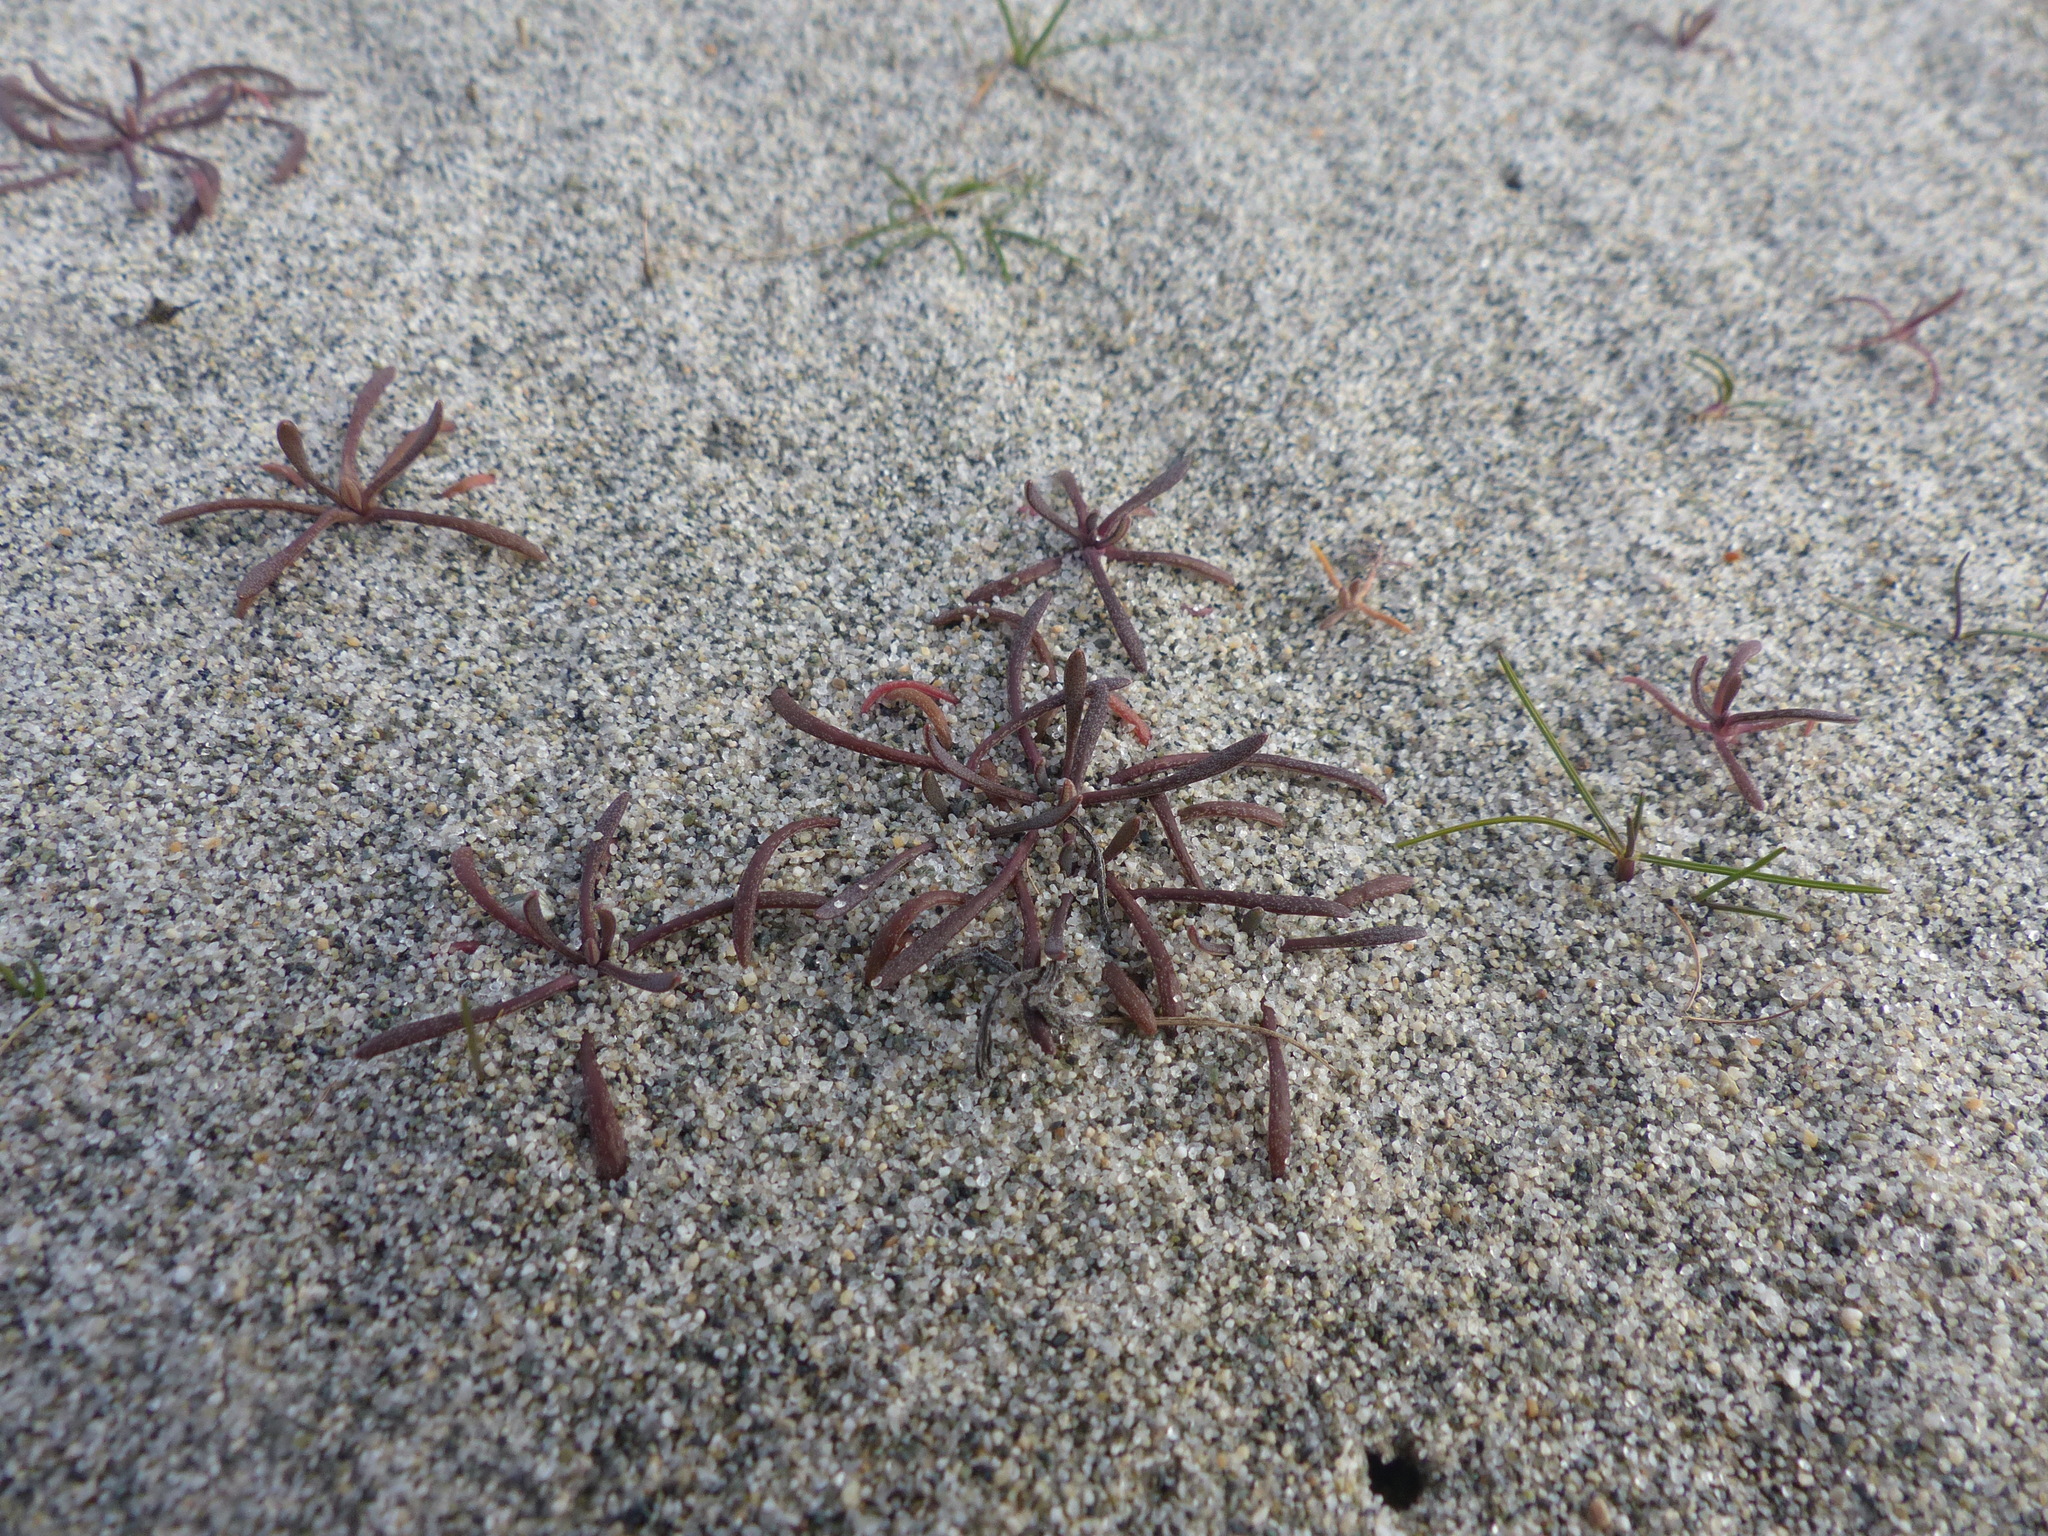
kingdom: Plantae
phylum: Tracheophyta
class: Magnoliopsida
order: Caryophyllales
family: Montiaceae
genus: Claytonia
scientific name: Claytonia exigua
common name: Pale spring beauty
